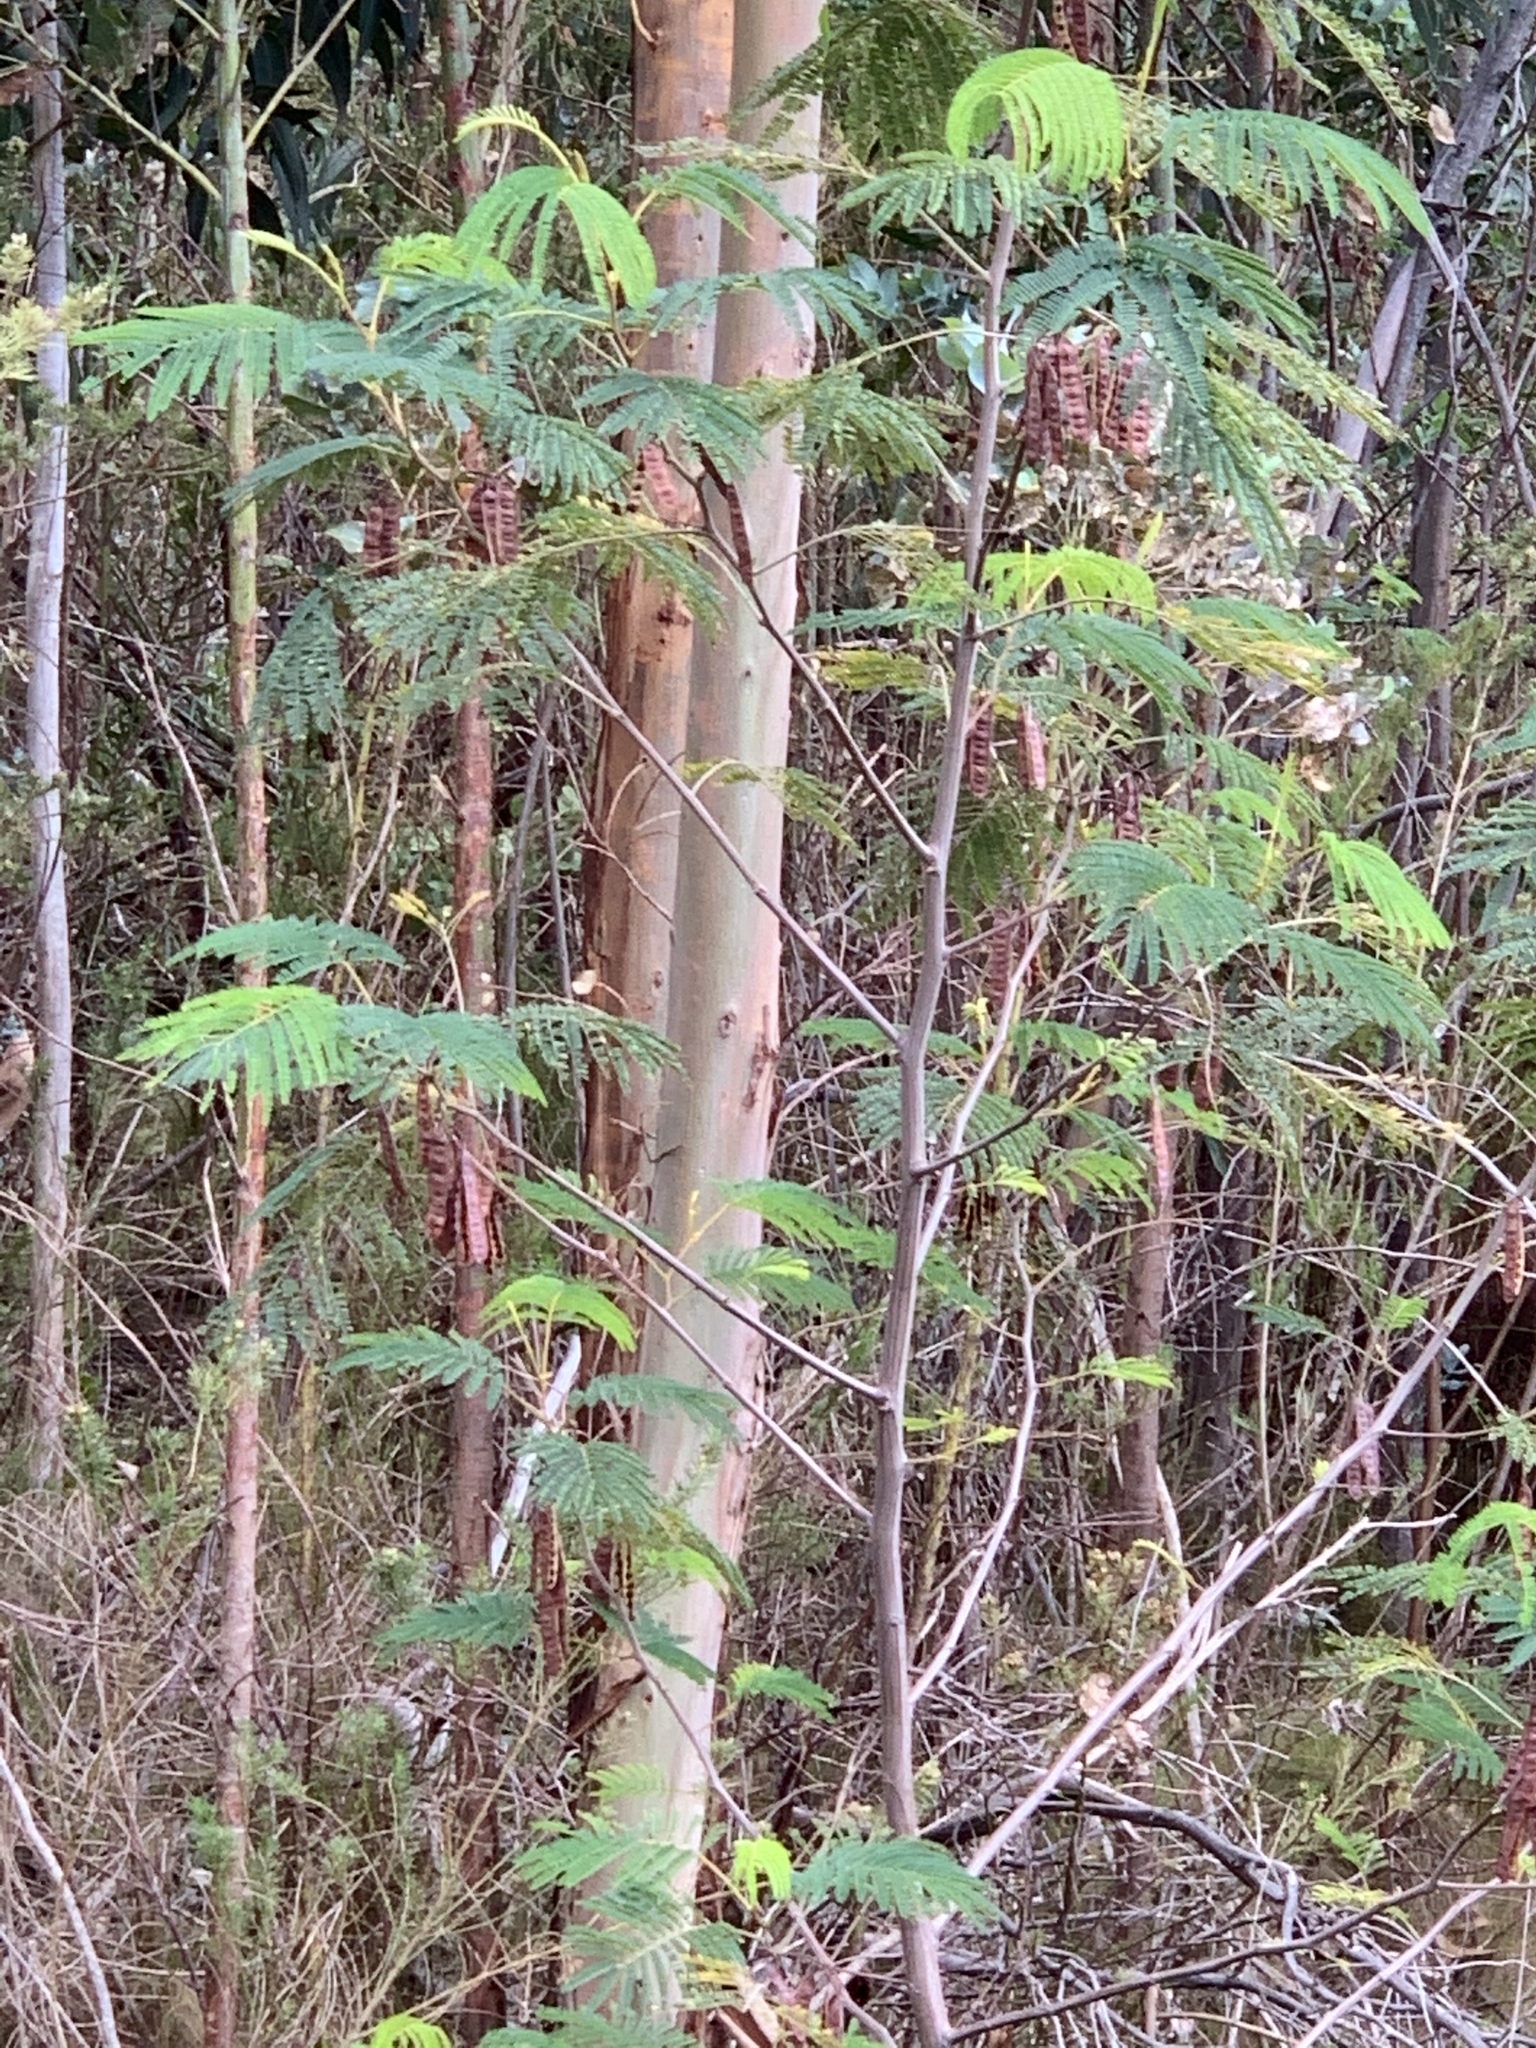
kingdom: Plantae
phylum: Tracheophyta
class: Magnoliopsida
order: Fabales
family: Fabaceae
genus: Paraserianthes
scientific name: Paraserianthes lophantha
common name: Plume albizia
